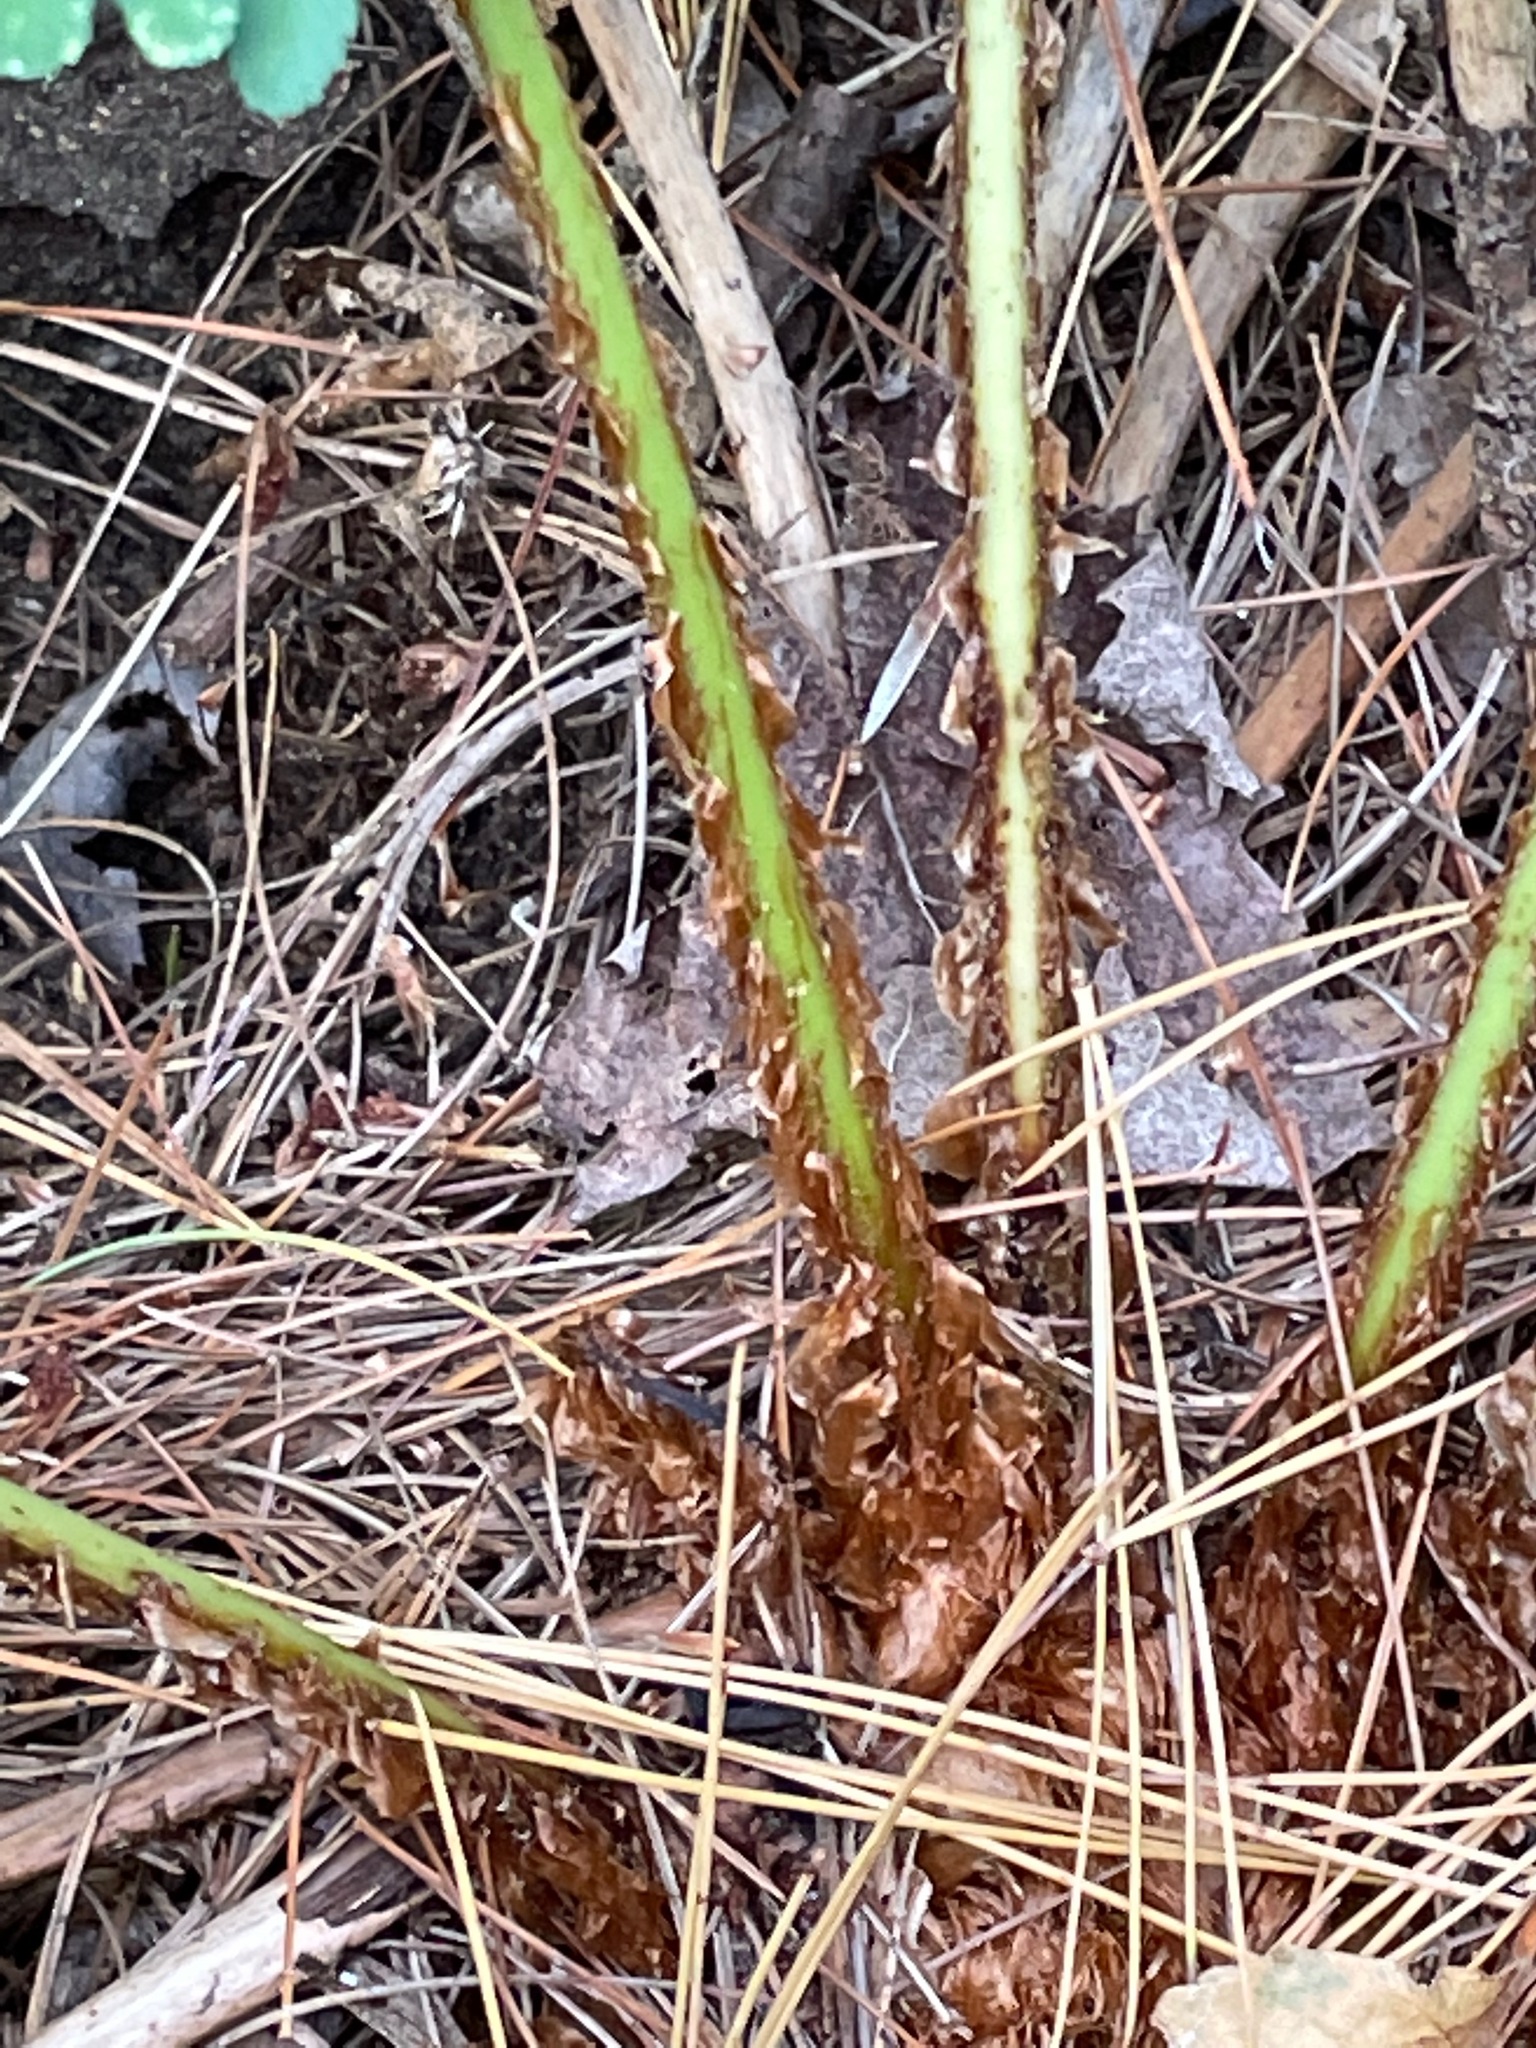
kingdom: Plantae
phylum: Tracheophyta
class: Polypodiopsida
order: Polypodiales
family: Dryopteridaceae
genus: Dryopteris
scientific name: Dryopteris marginalis
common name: Marginal wood fern
